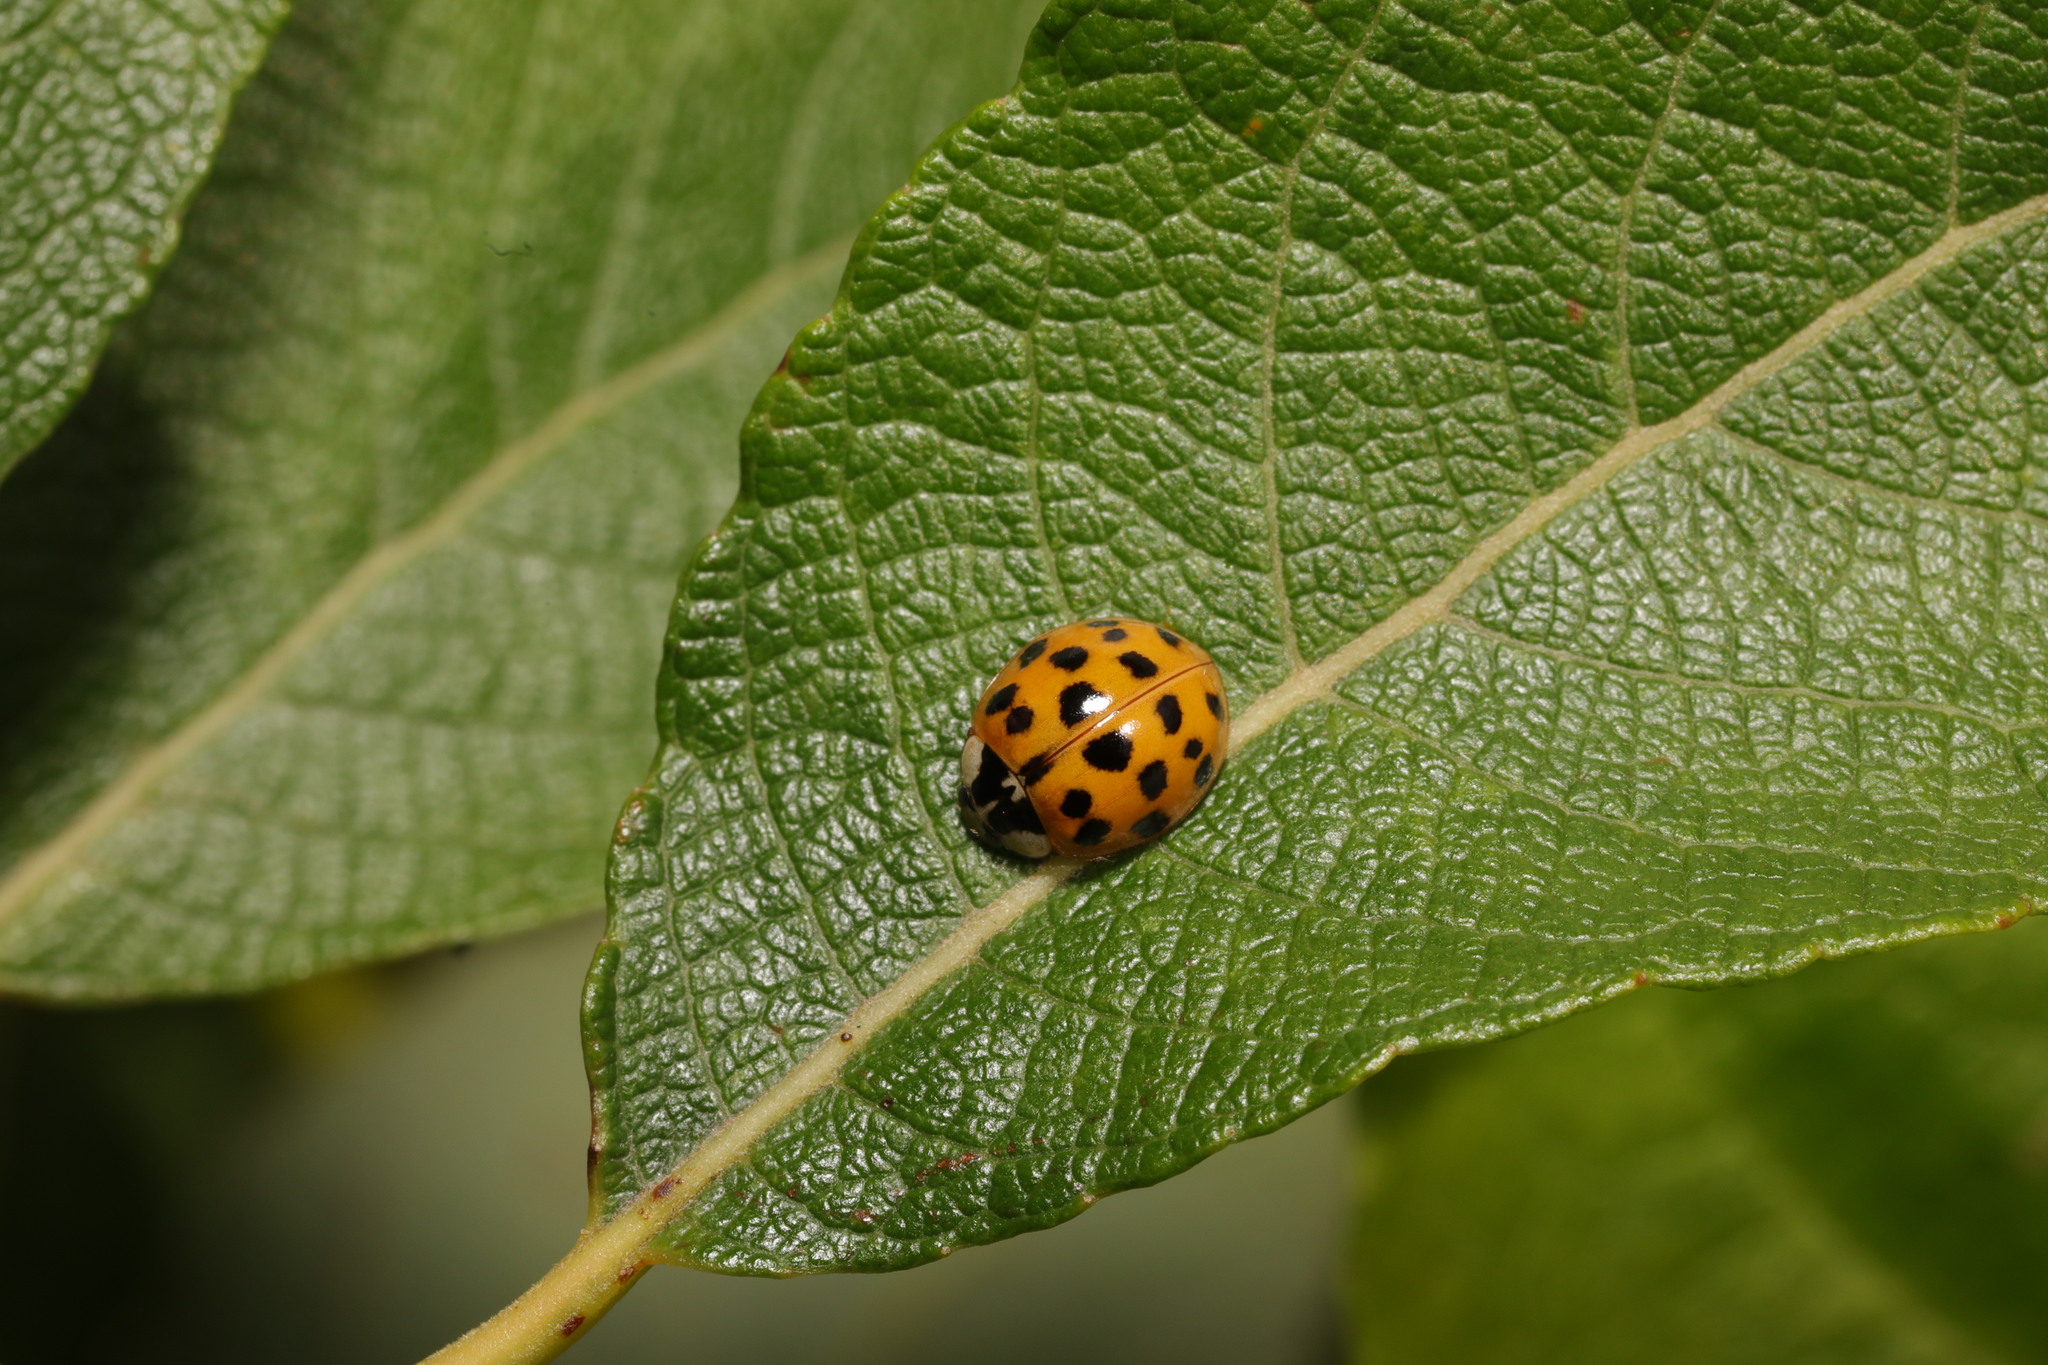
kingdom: Animalia
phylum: Arthropoda
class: Insecta
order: Coleoptera
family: Coccinellidae
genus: Harmonia
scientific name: Harmonia axyridis
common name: Harlequin ladybird
